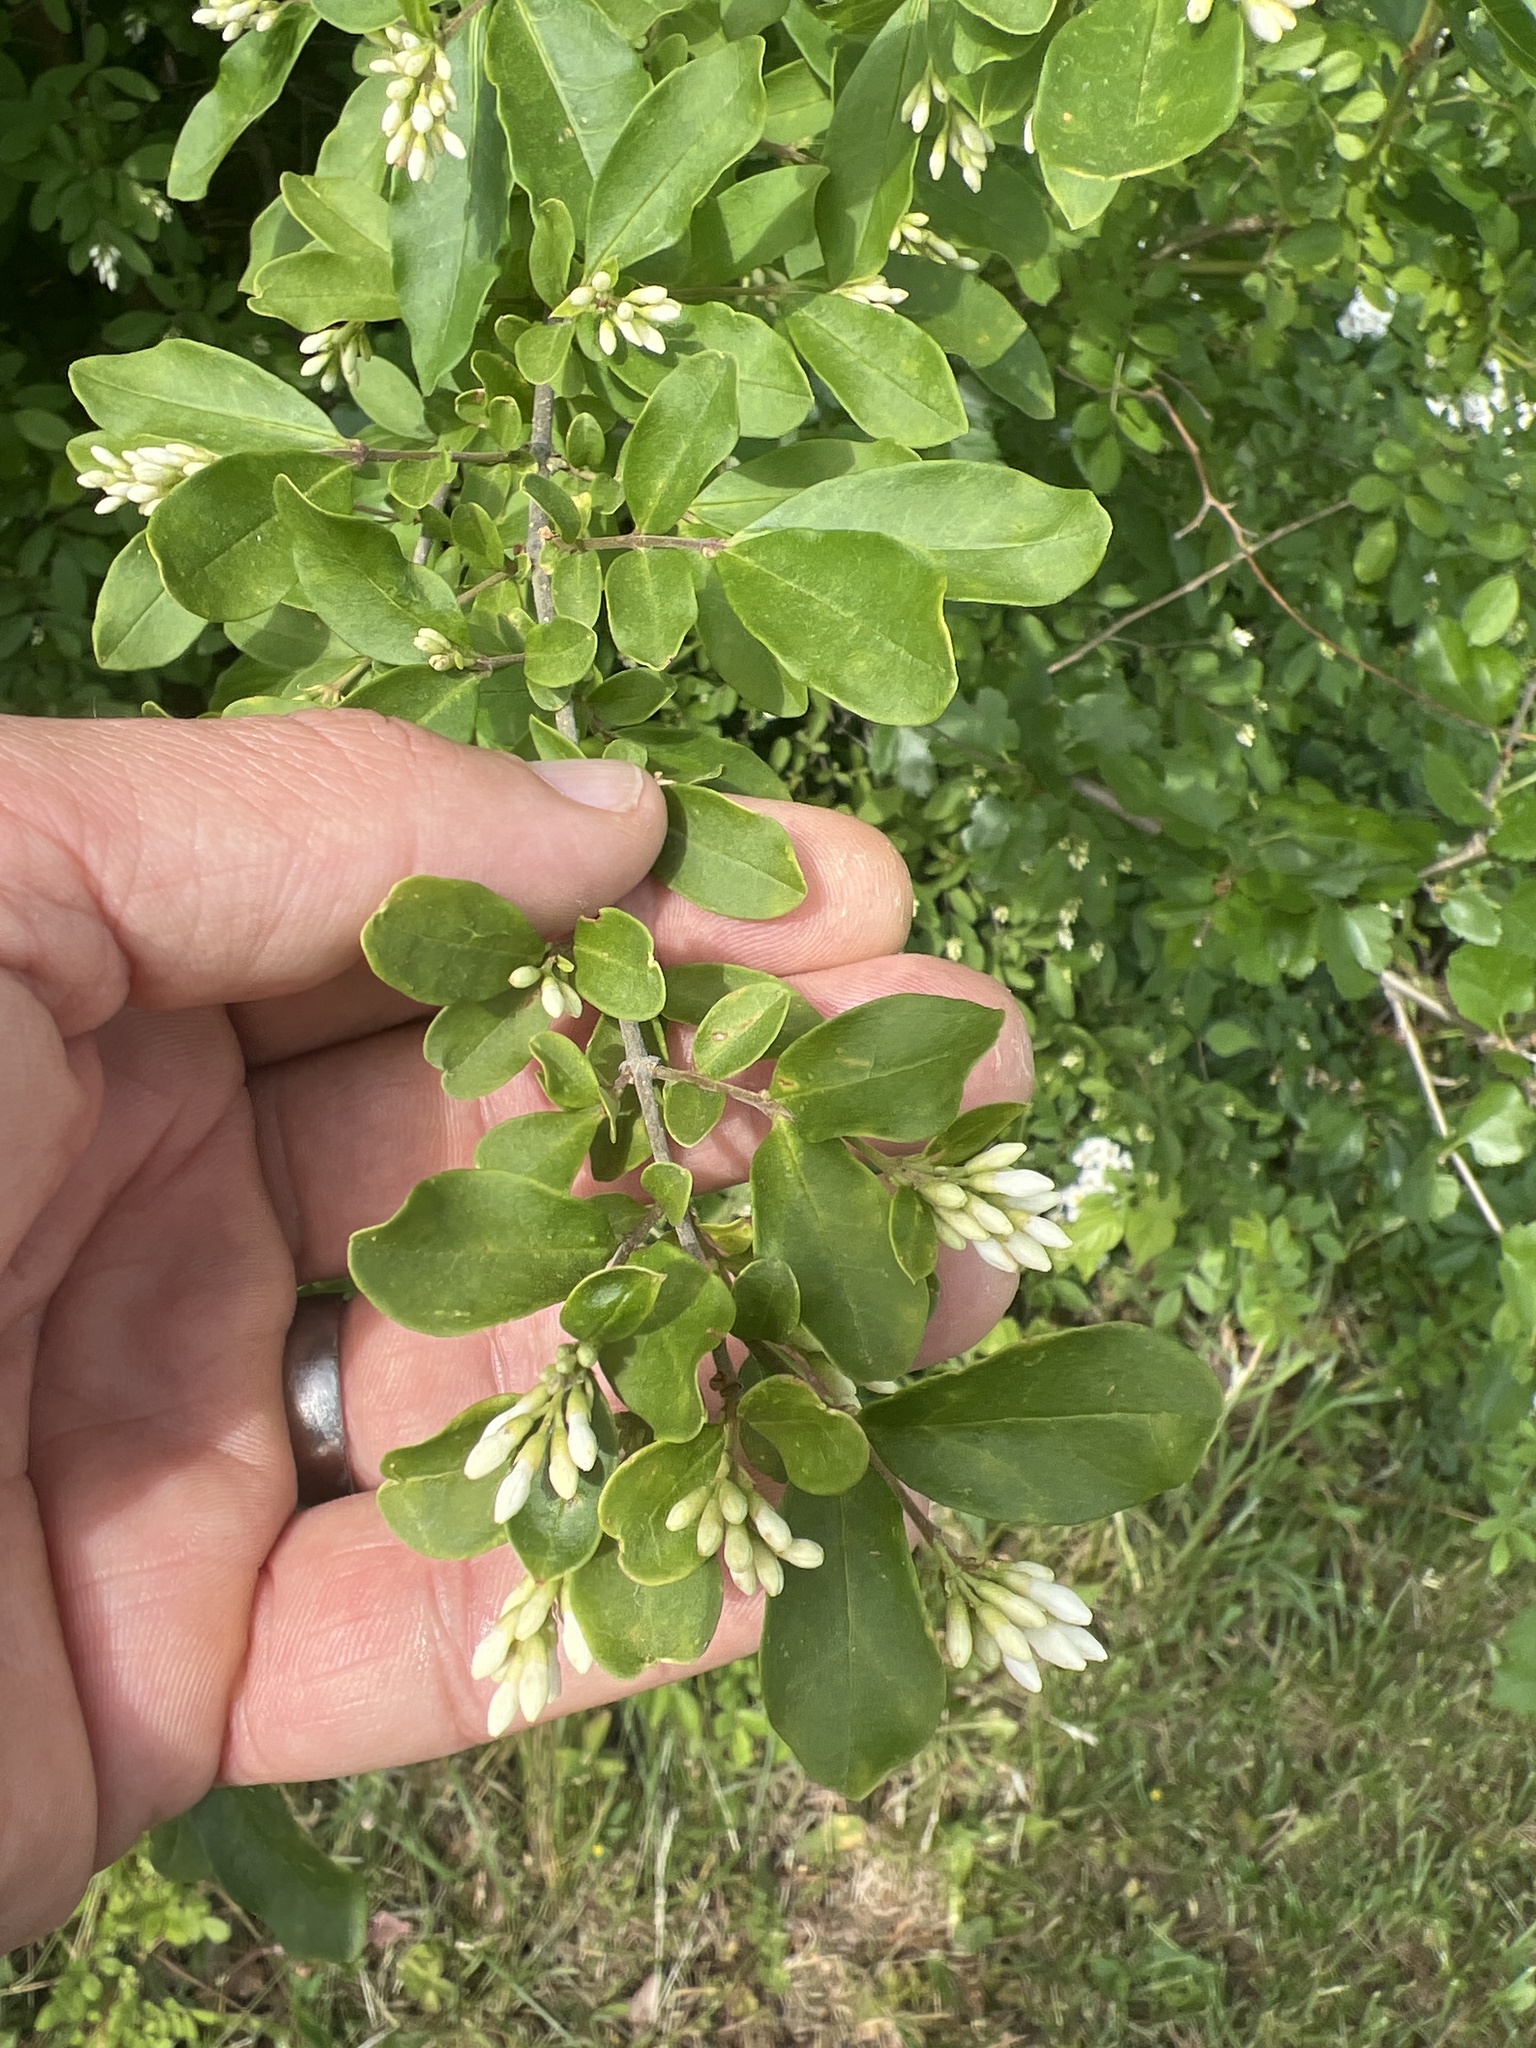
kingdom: Plantae
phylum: Tracheophyta
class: Magnoliopsida
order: Lamiales
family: Oleaceae
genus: Ligustrum
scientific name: Ligustrum obtusifolium
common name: Border privet
